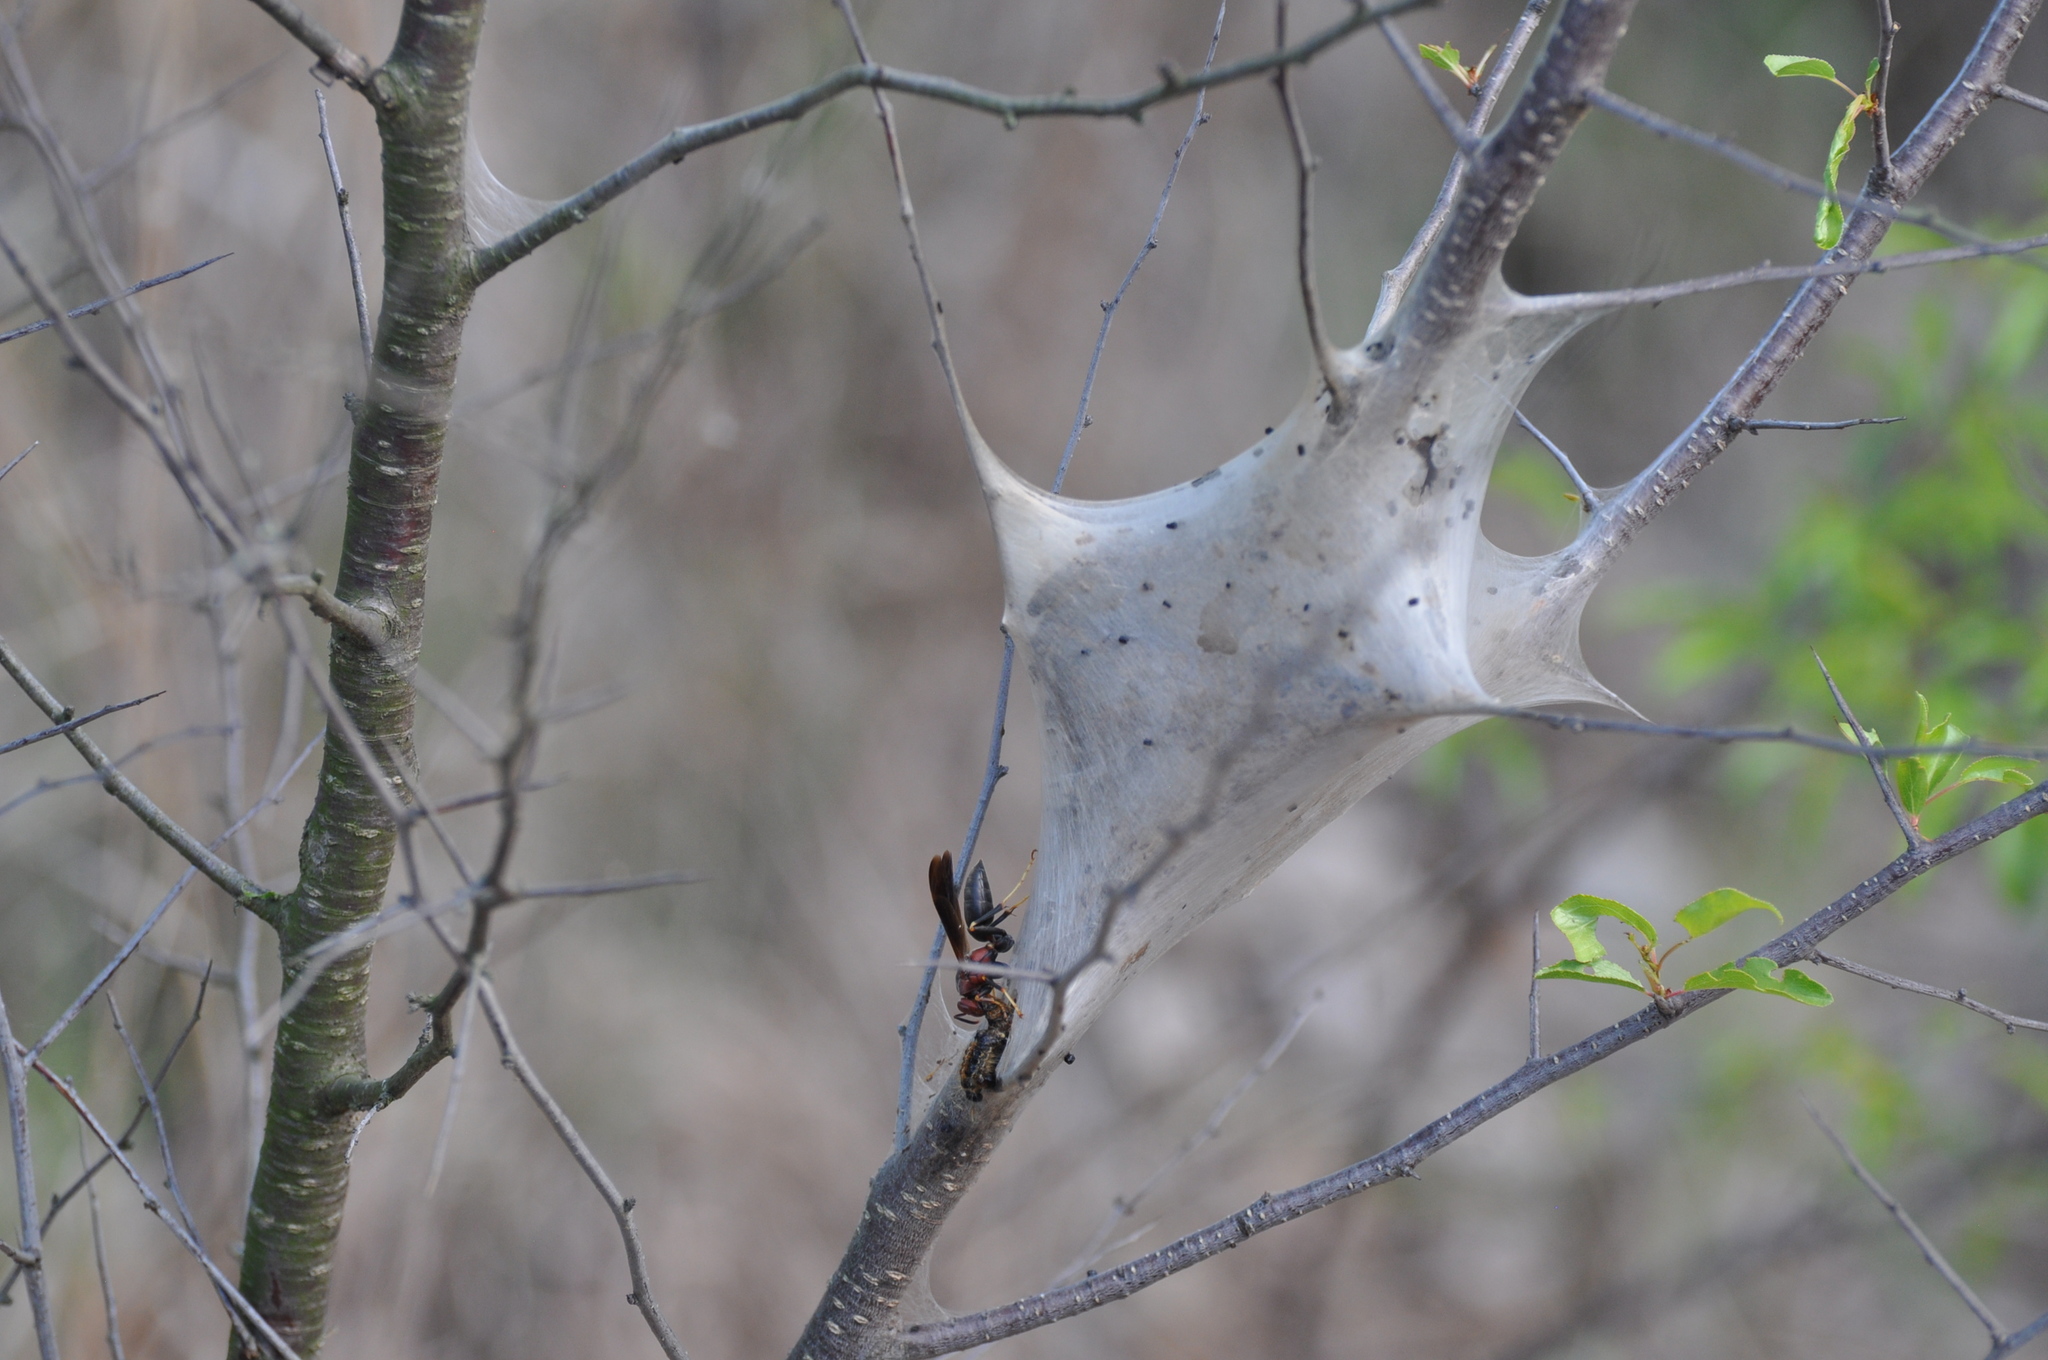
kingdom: Animalia
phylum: Arthropoda
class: Insecta
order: Hymenoptera
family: Eumenidae
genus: Polistes
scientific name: Polistes metricus
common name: Metric paper wasp
